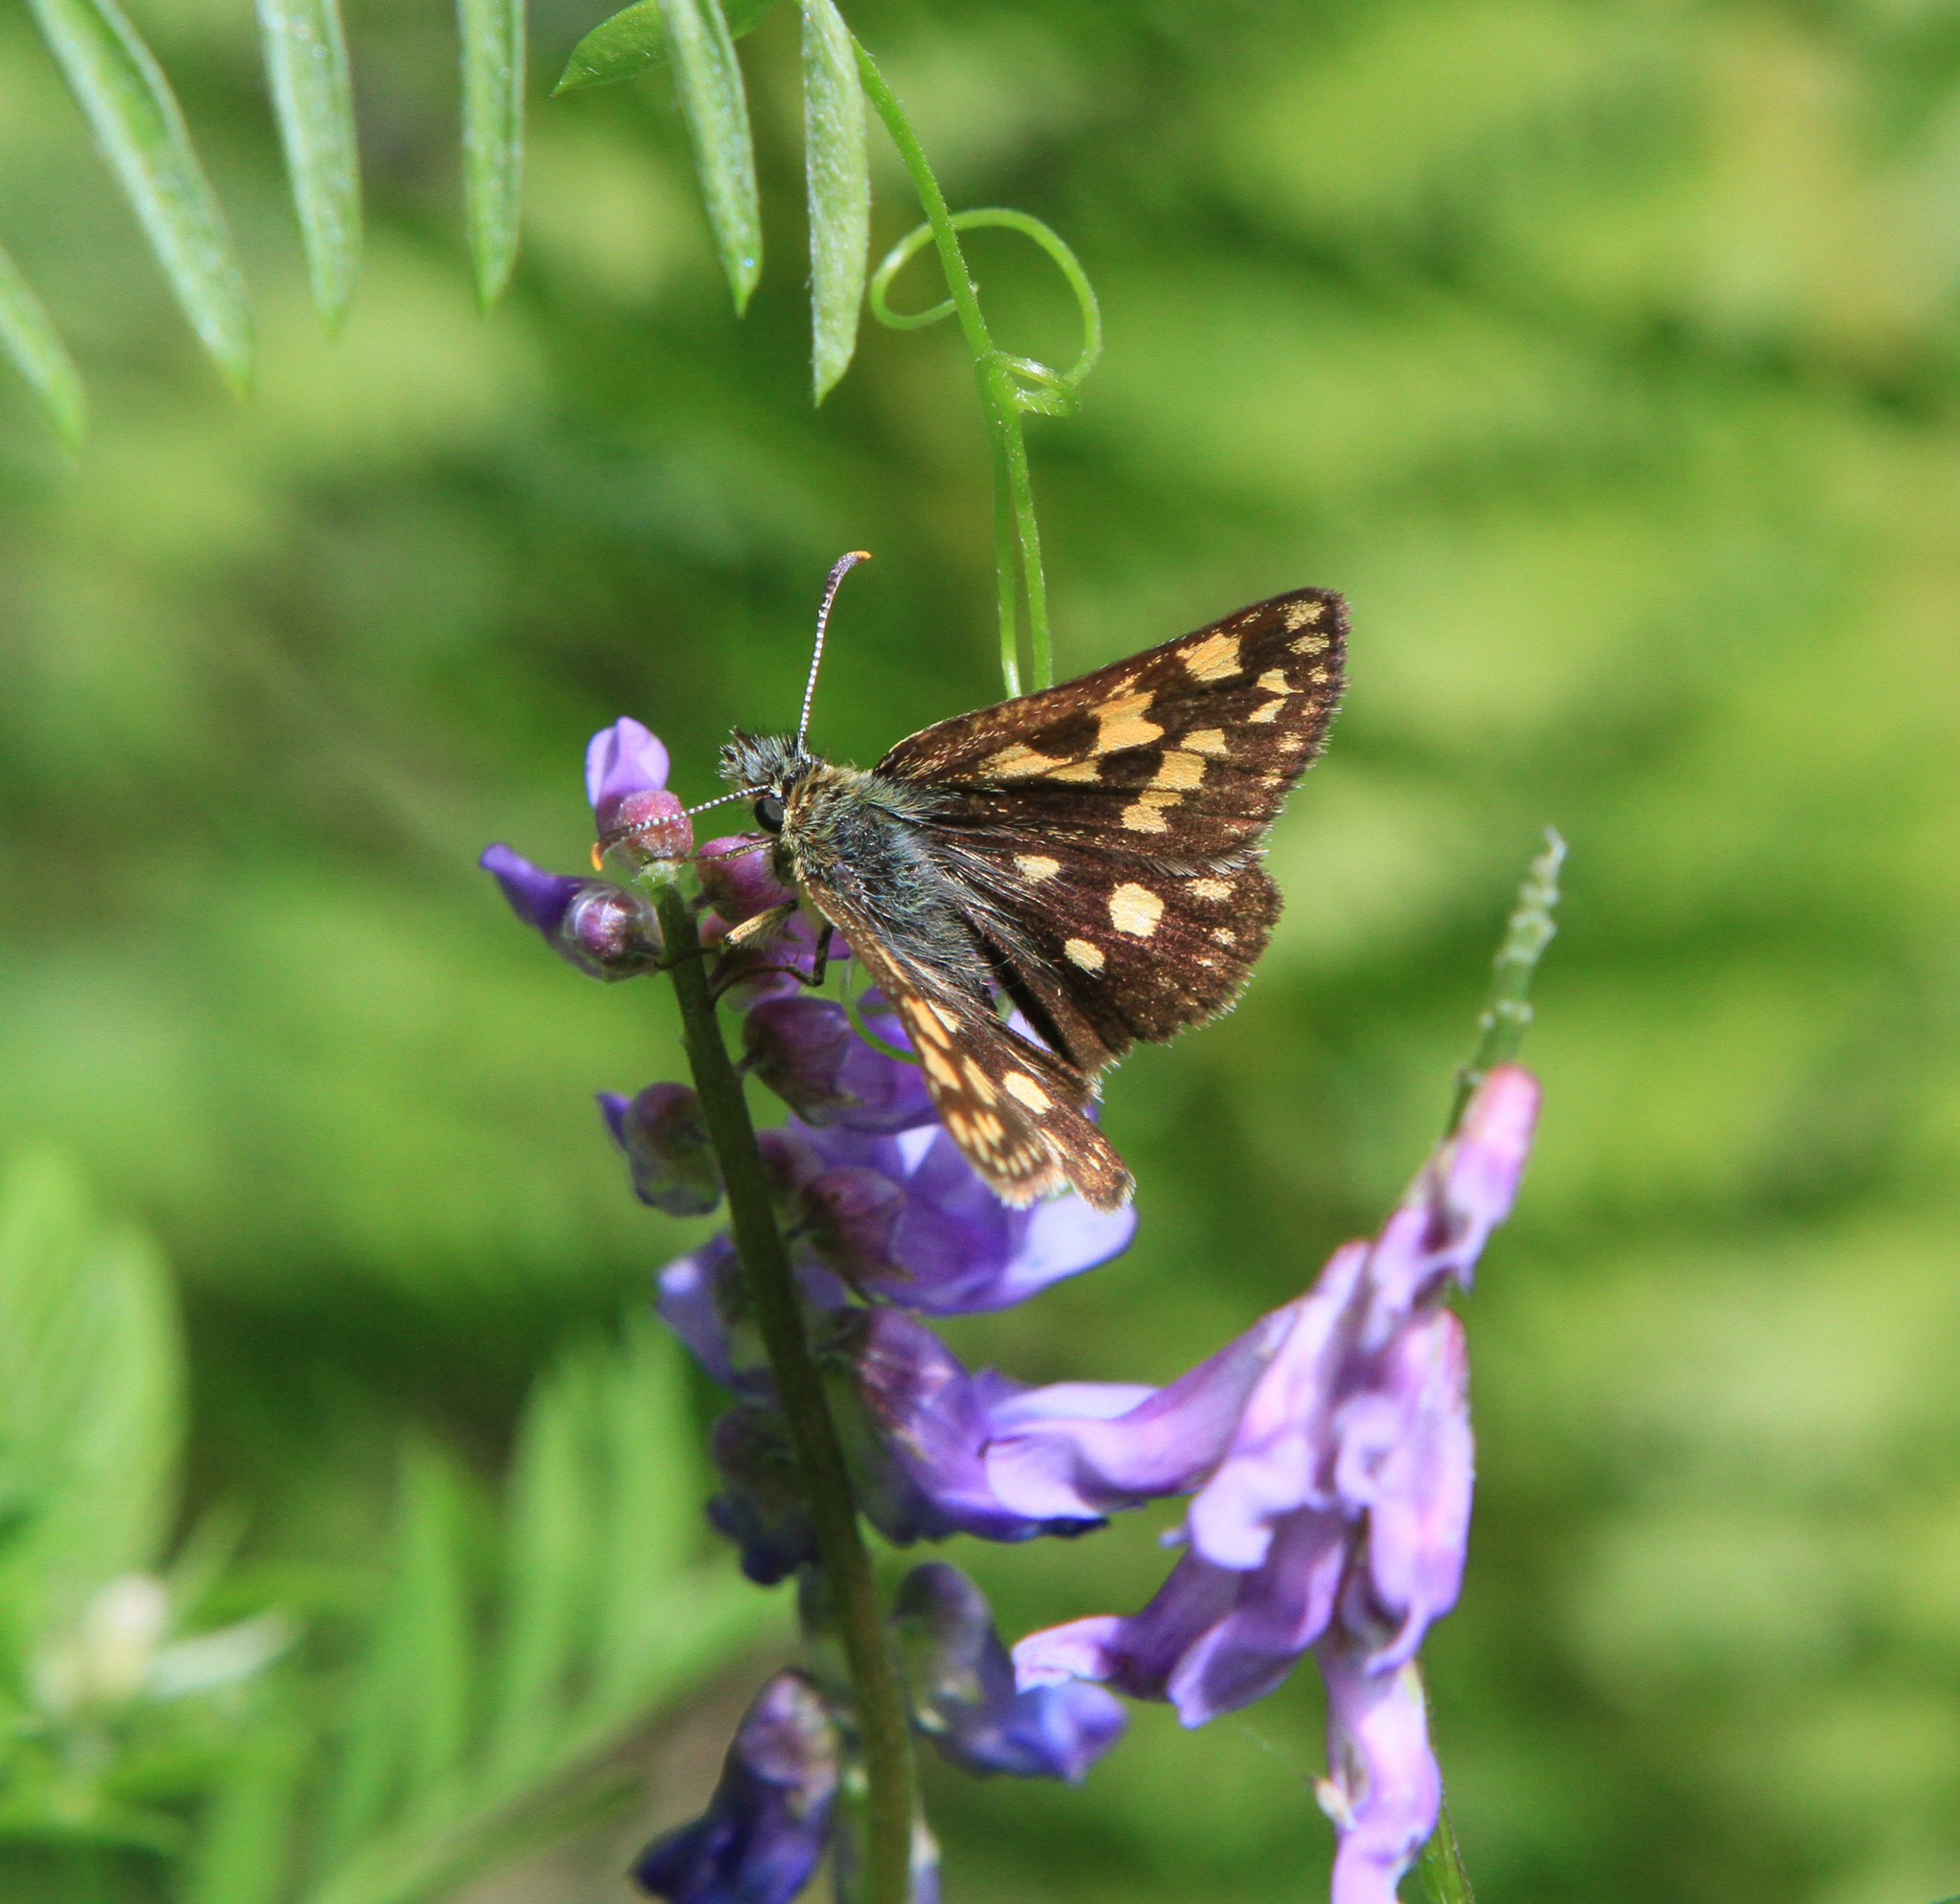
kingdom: Animalia
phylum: Arthropoda
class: Insecta
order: Lepidoptera
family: Hesperiidae
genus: Carterocephalus
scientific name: Carterocephalus palaemon
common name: Chequered skipper
